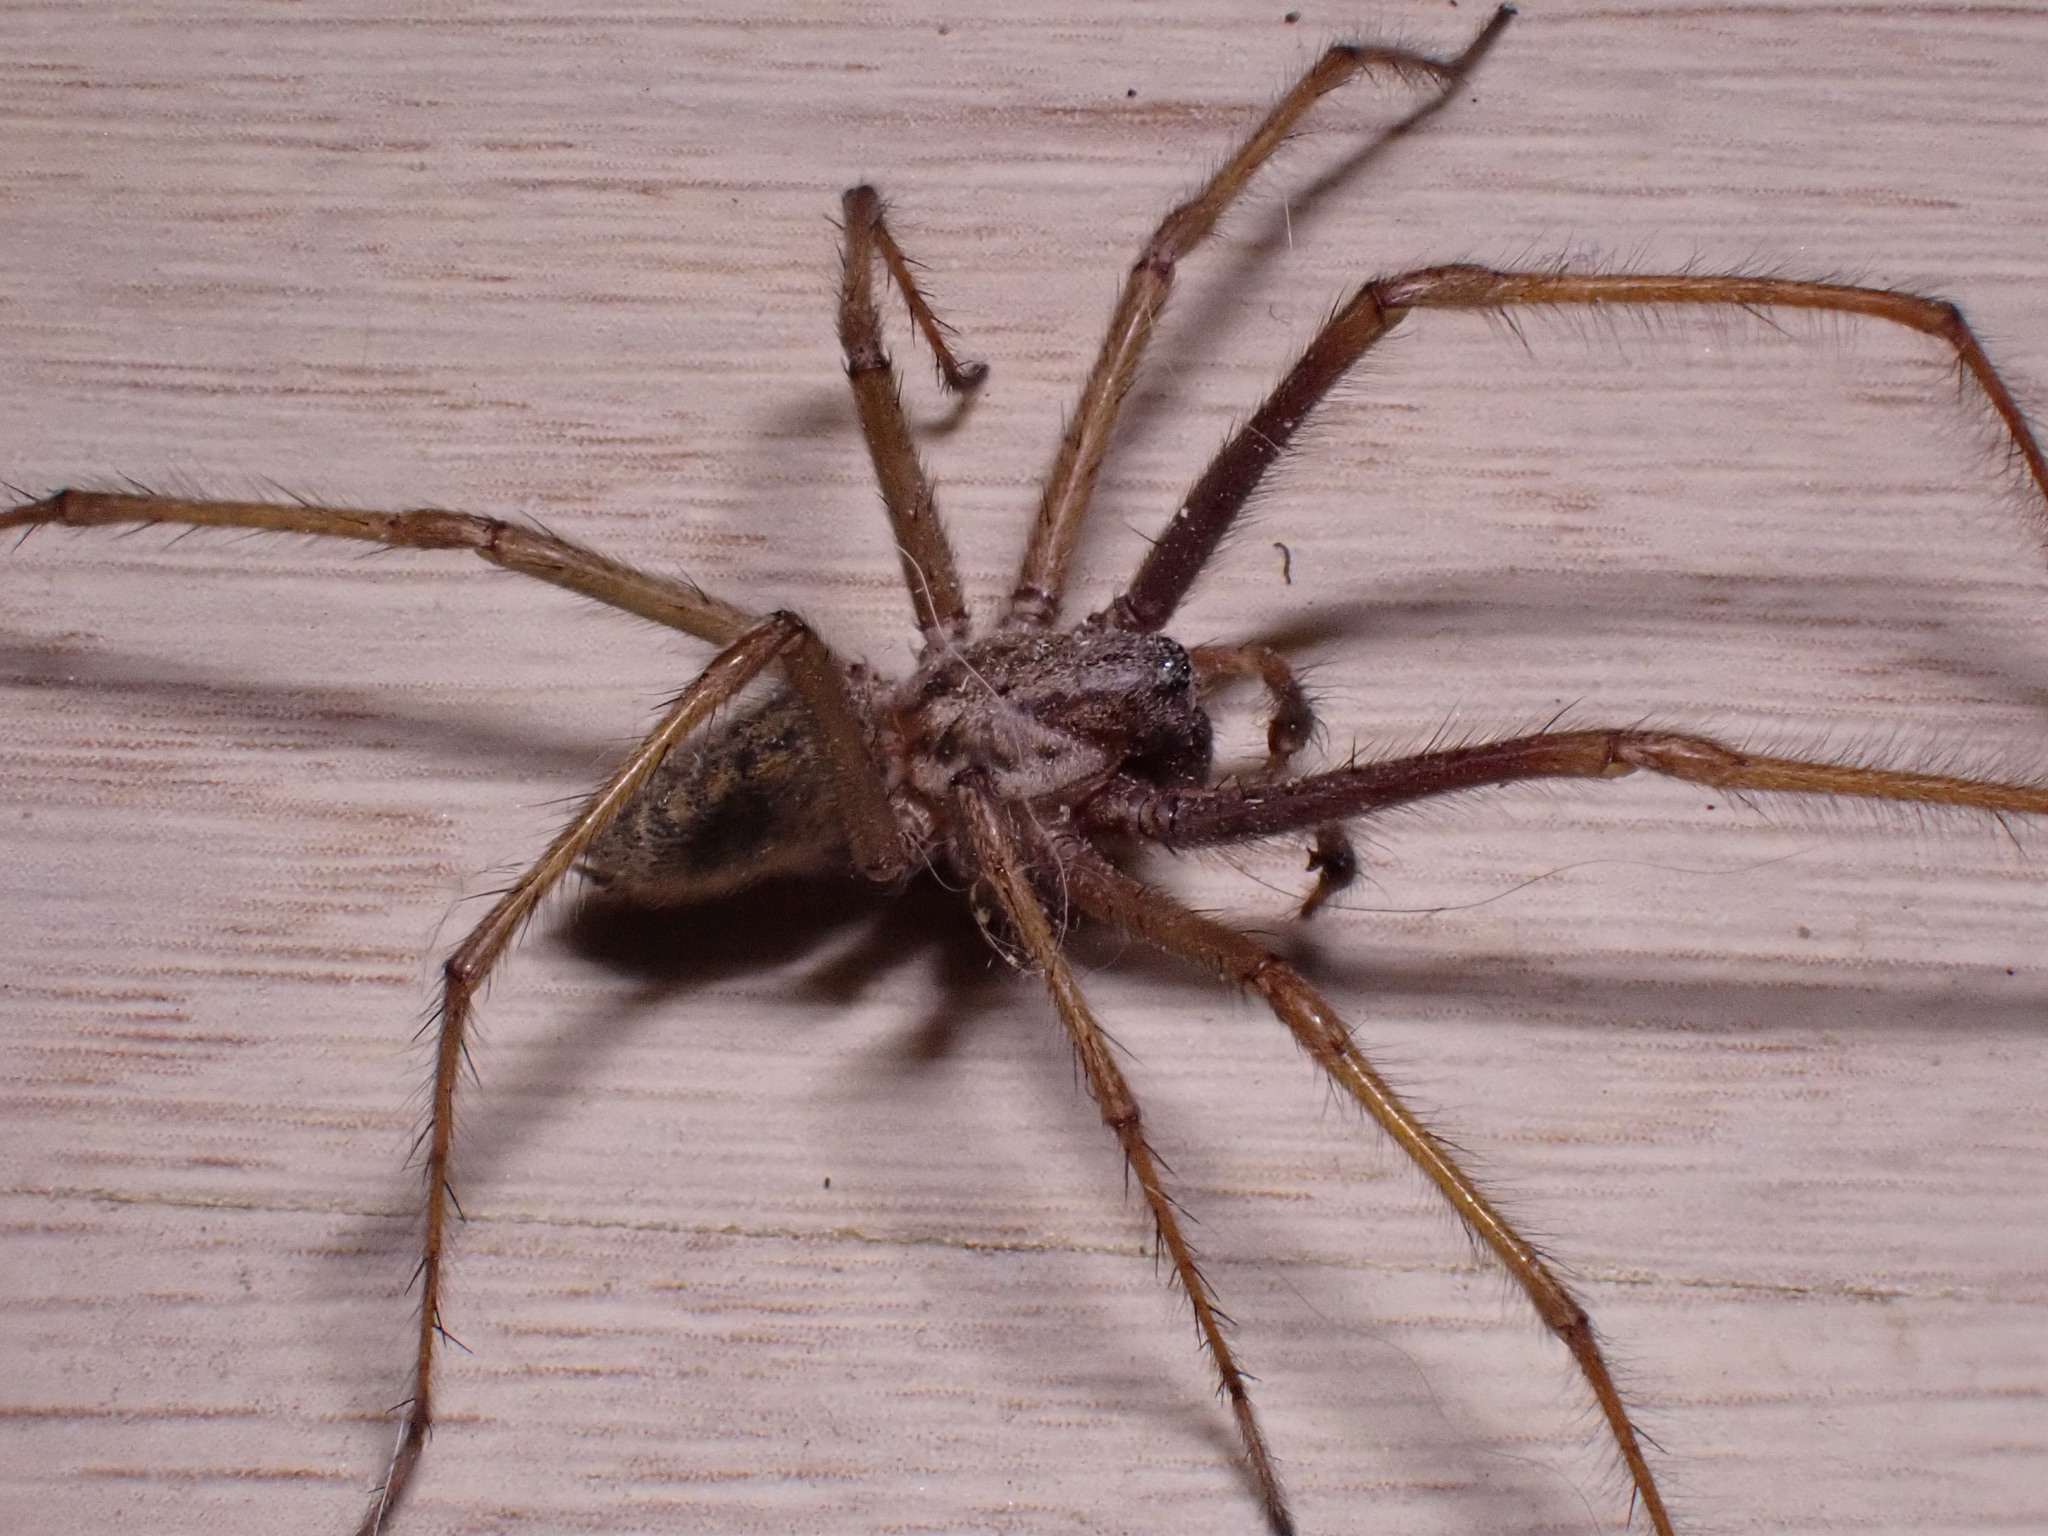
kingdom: Animalia
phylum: Arthropoda
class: Arachnida
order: Araneae
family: Agelenidae
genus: Eratigena
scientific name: Eratigena atrica
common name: Giant house spider
